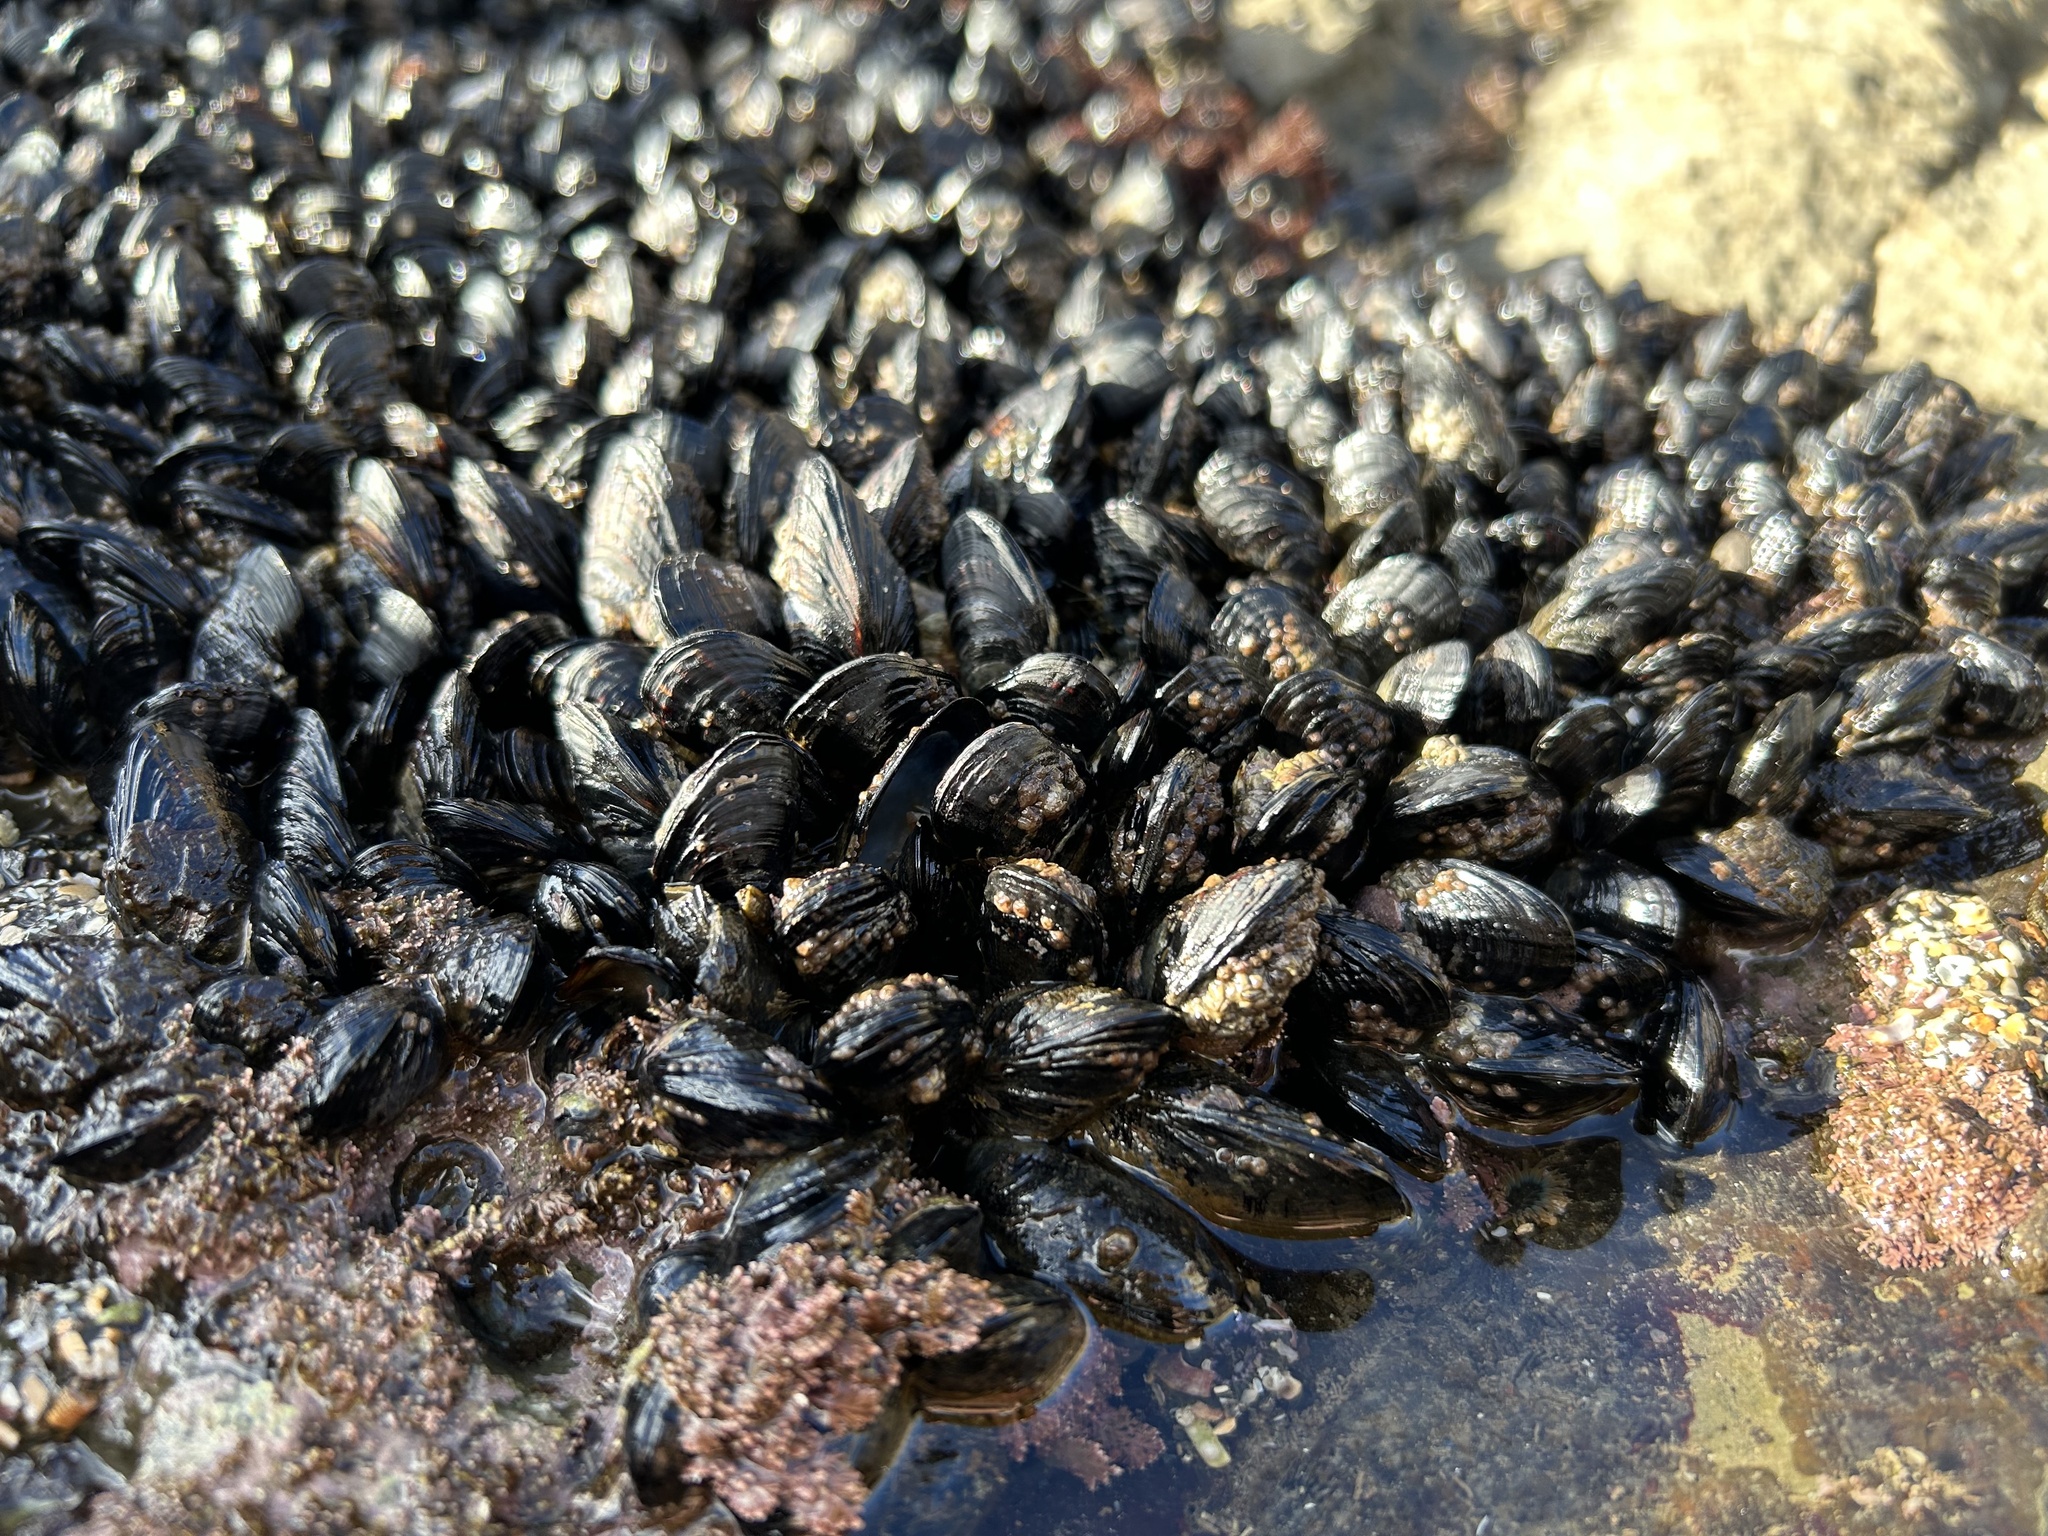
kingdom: Animalia
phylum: Mollusca
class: Bivalvia
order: Mytilida
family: Mytilidae
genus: Mytilus
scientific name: Mytilus californianus
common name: California mussel
